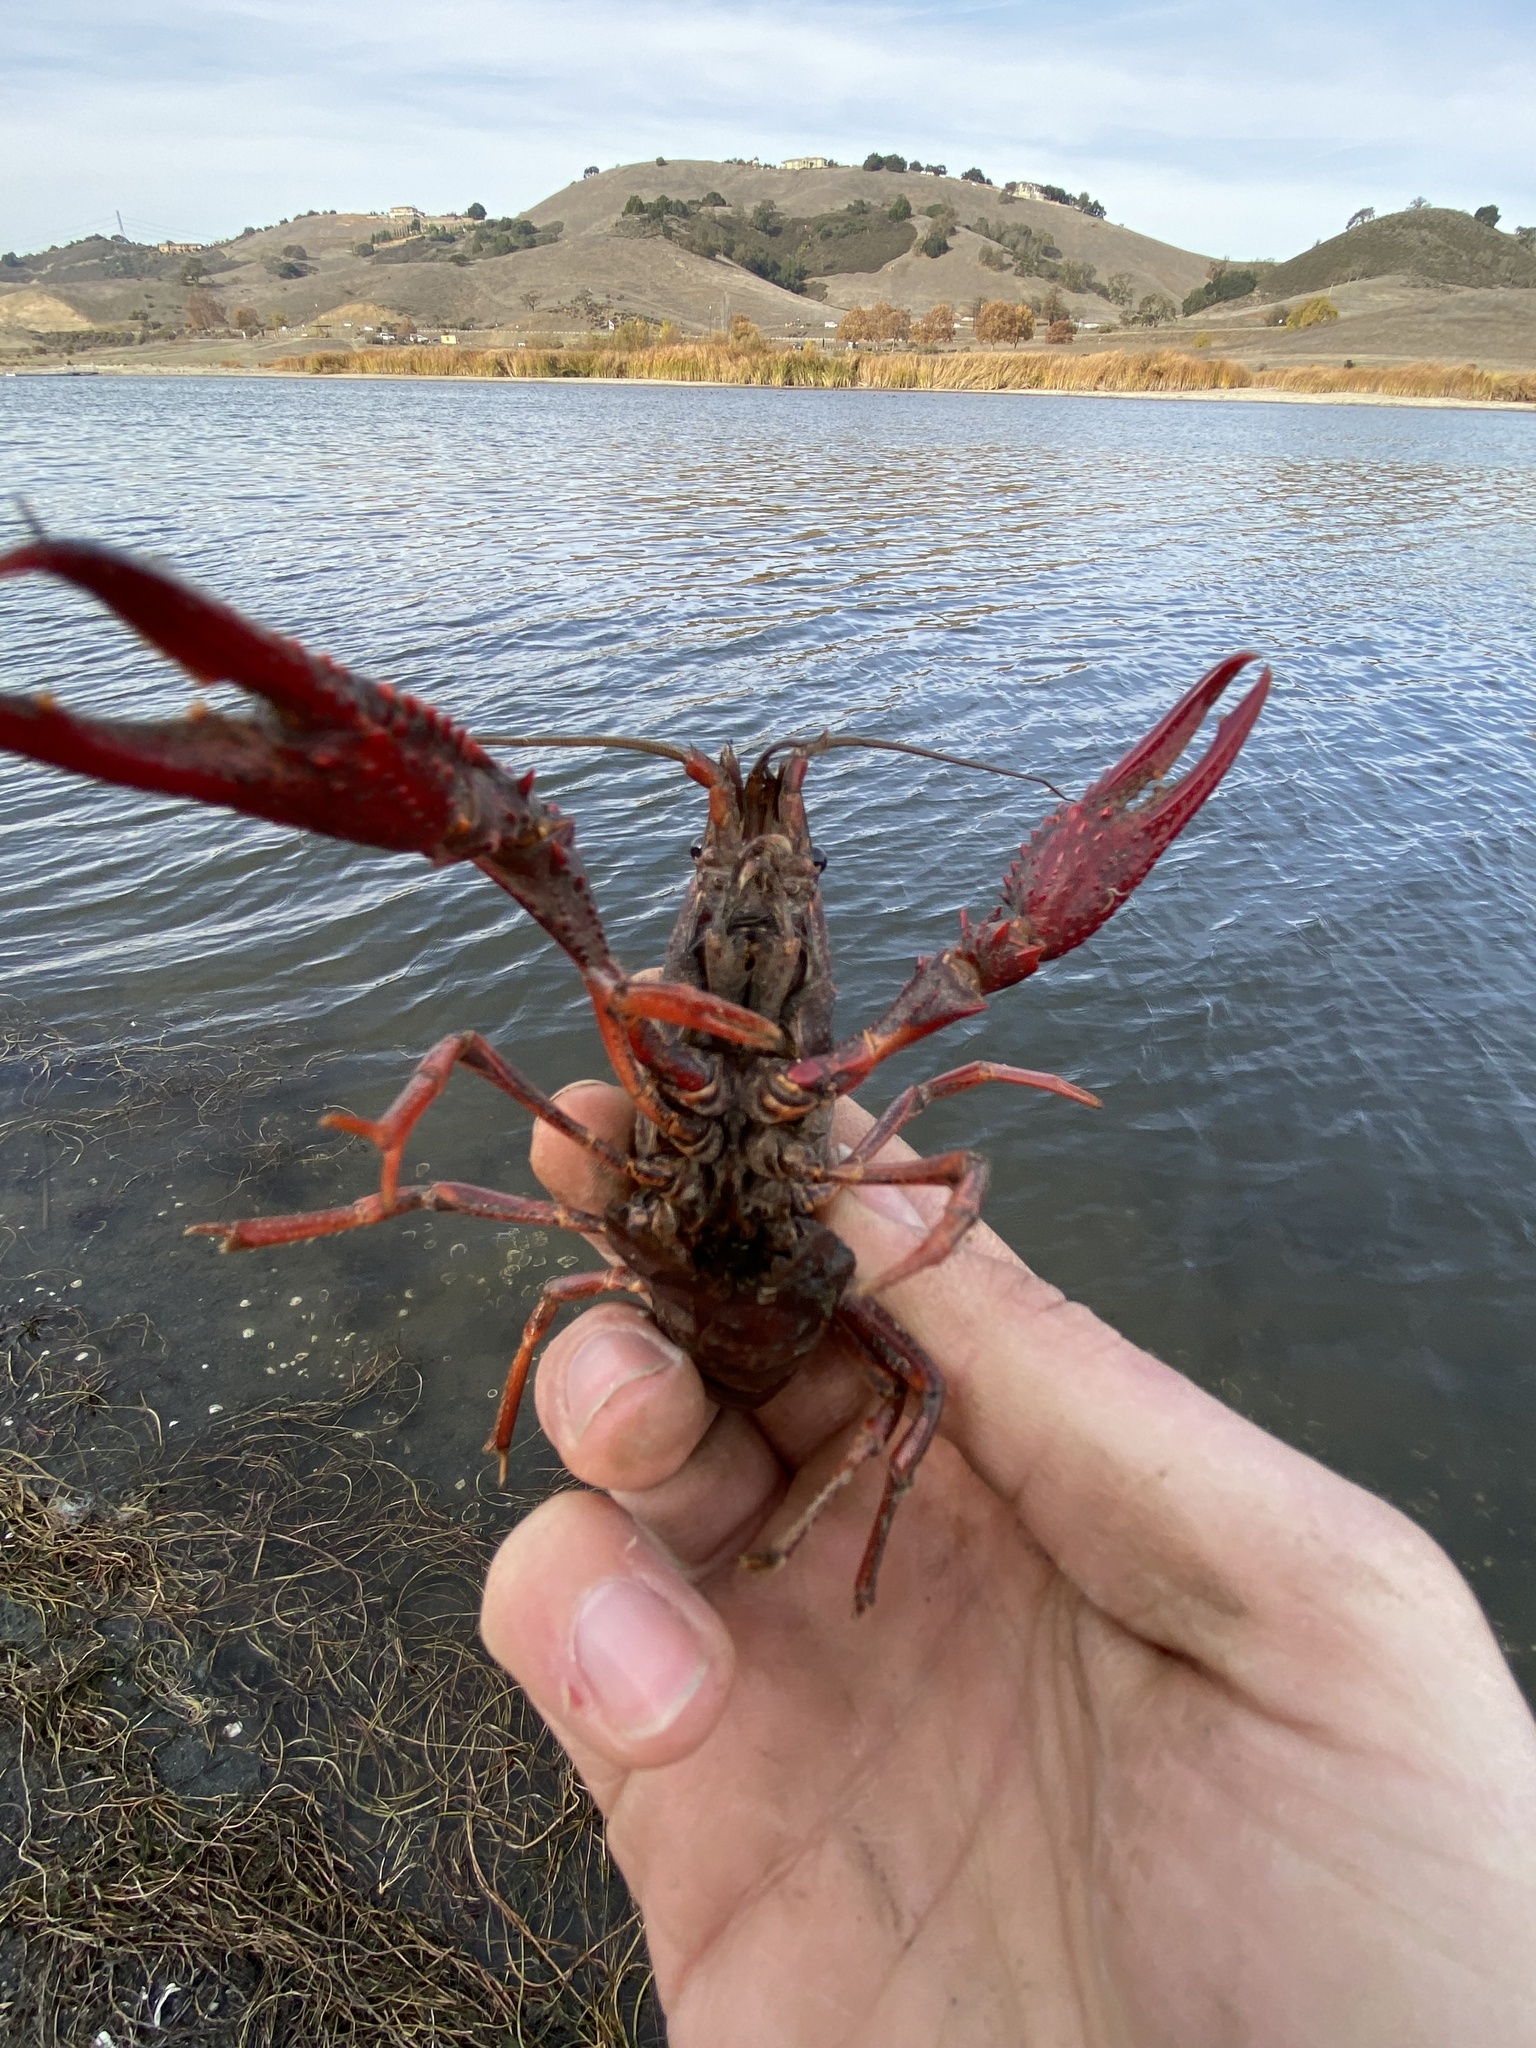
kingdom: Animalia
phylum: Arthropoda
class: Malacostraca
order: Decapoda
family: Cambaridae
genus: Procambarus
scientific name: Procambarus clarkii
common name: Red swamp crayfish
